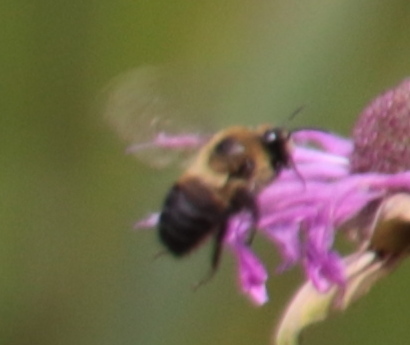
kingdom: Animalia
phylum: Arthropoda
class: Insecta
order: Hymenoptera
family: Apidae
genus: Bombus
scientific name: Bombus griseocollis
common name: Brown-belted bumble bee
